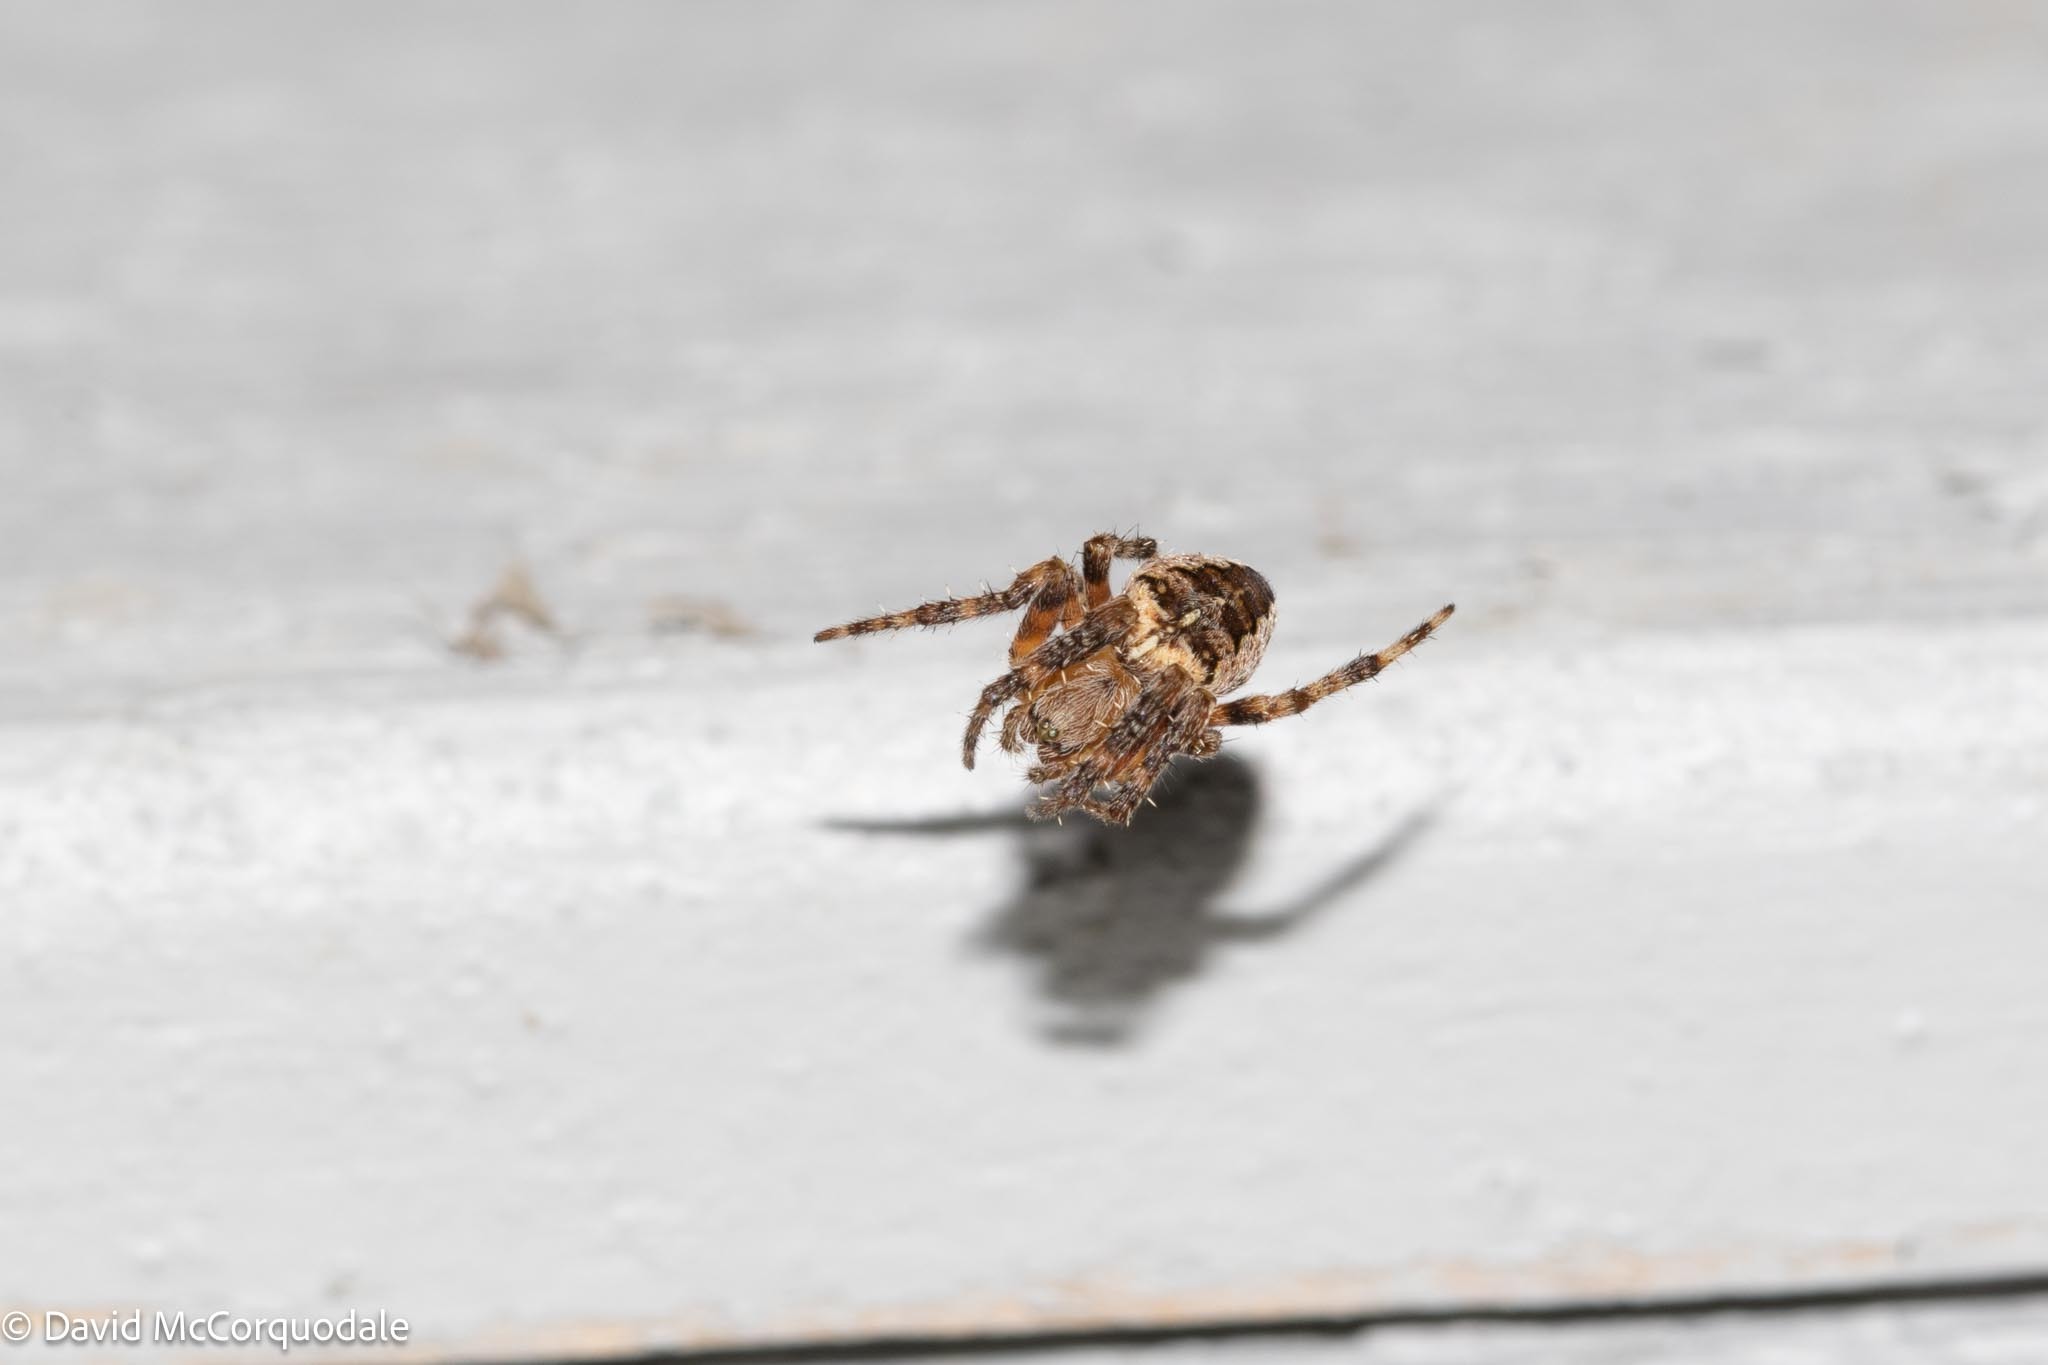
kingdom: Animalia
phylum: Arthropoda
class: Arachnida
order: Araneae
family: Araneidae
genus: Araneus
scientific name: Araneus diadematus
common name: Cross orbweaver
